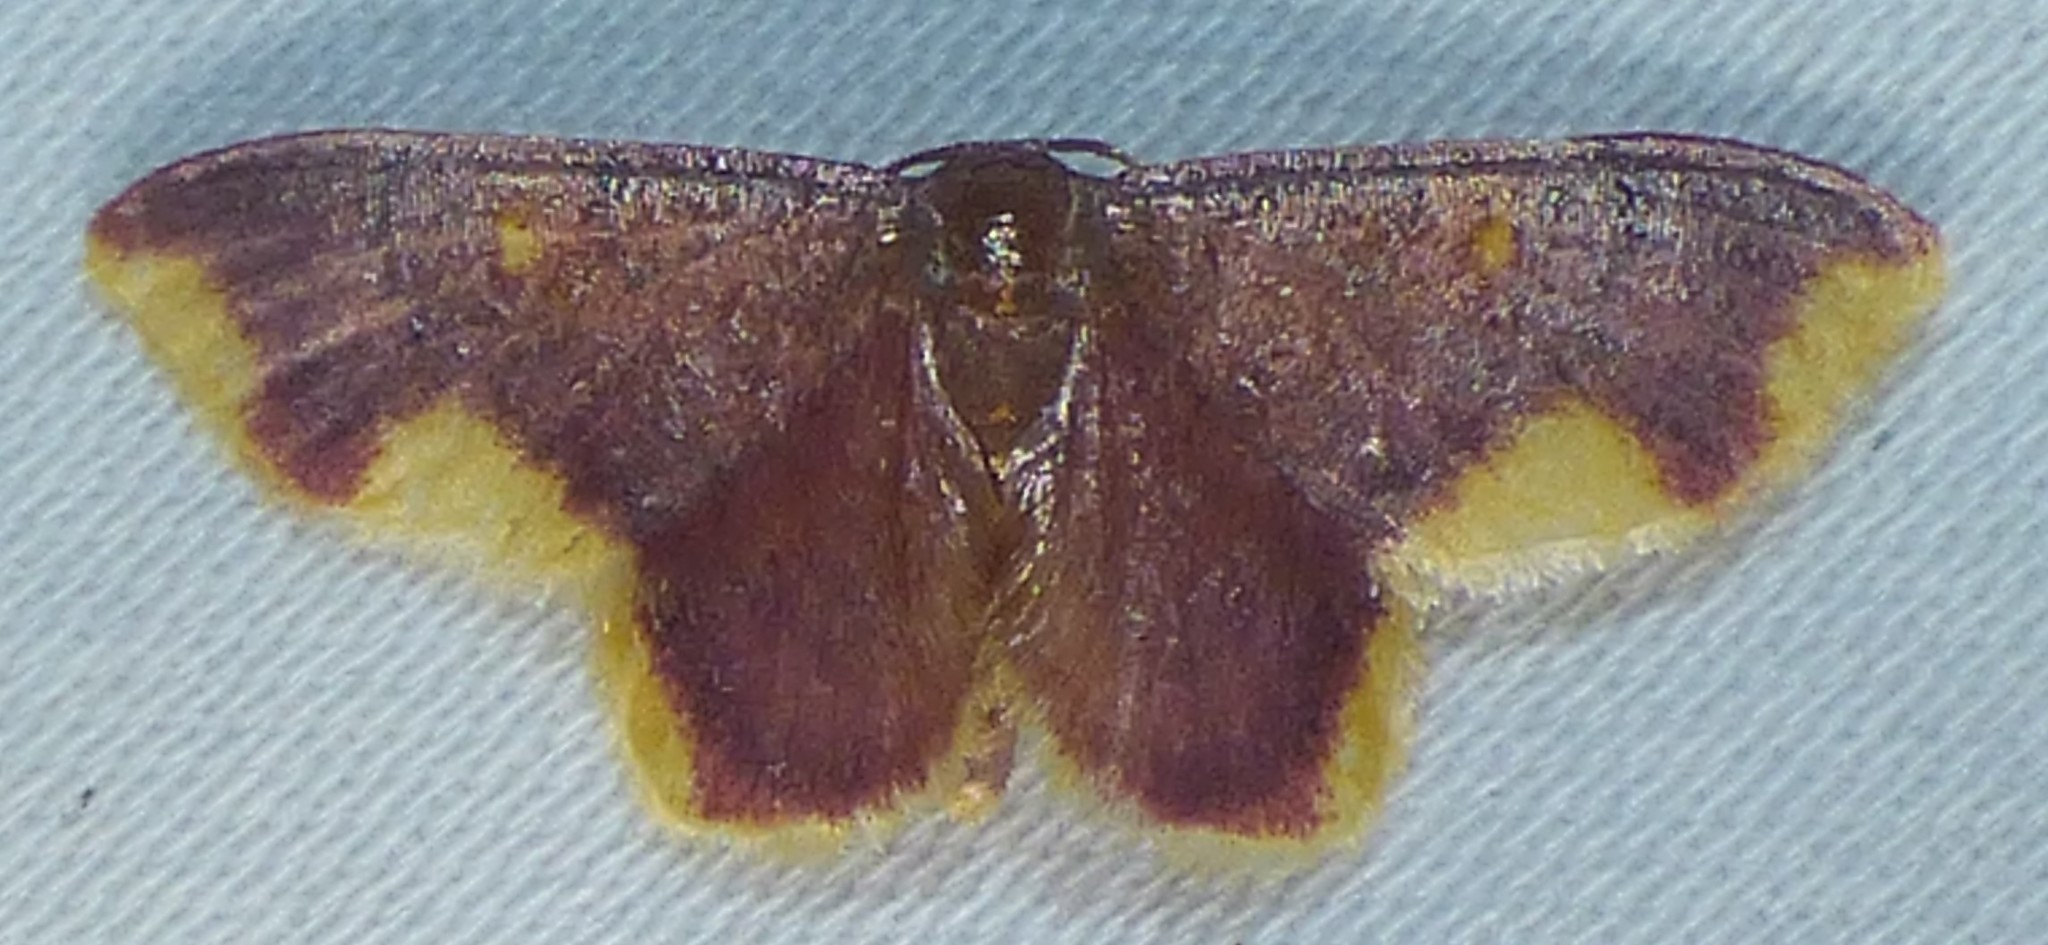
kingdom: Animalia
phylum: Arthropoda
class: Insecta
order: Lepidoptera
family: Geometridae
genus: Lophosis
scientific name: Lophosis labeculata
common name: Stained lophosis moth
